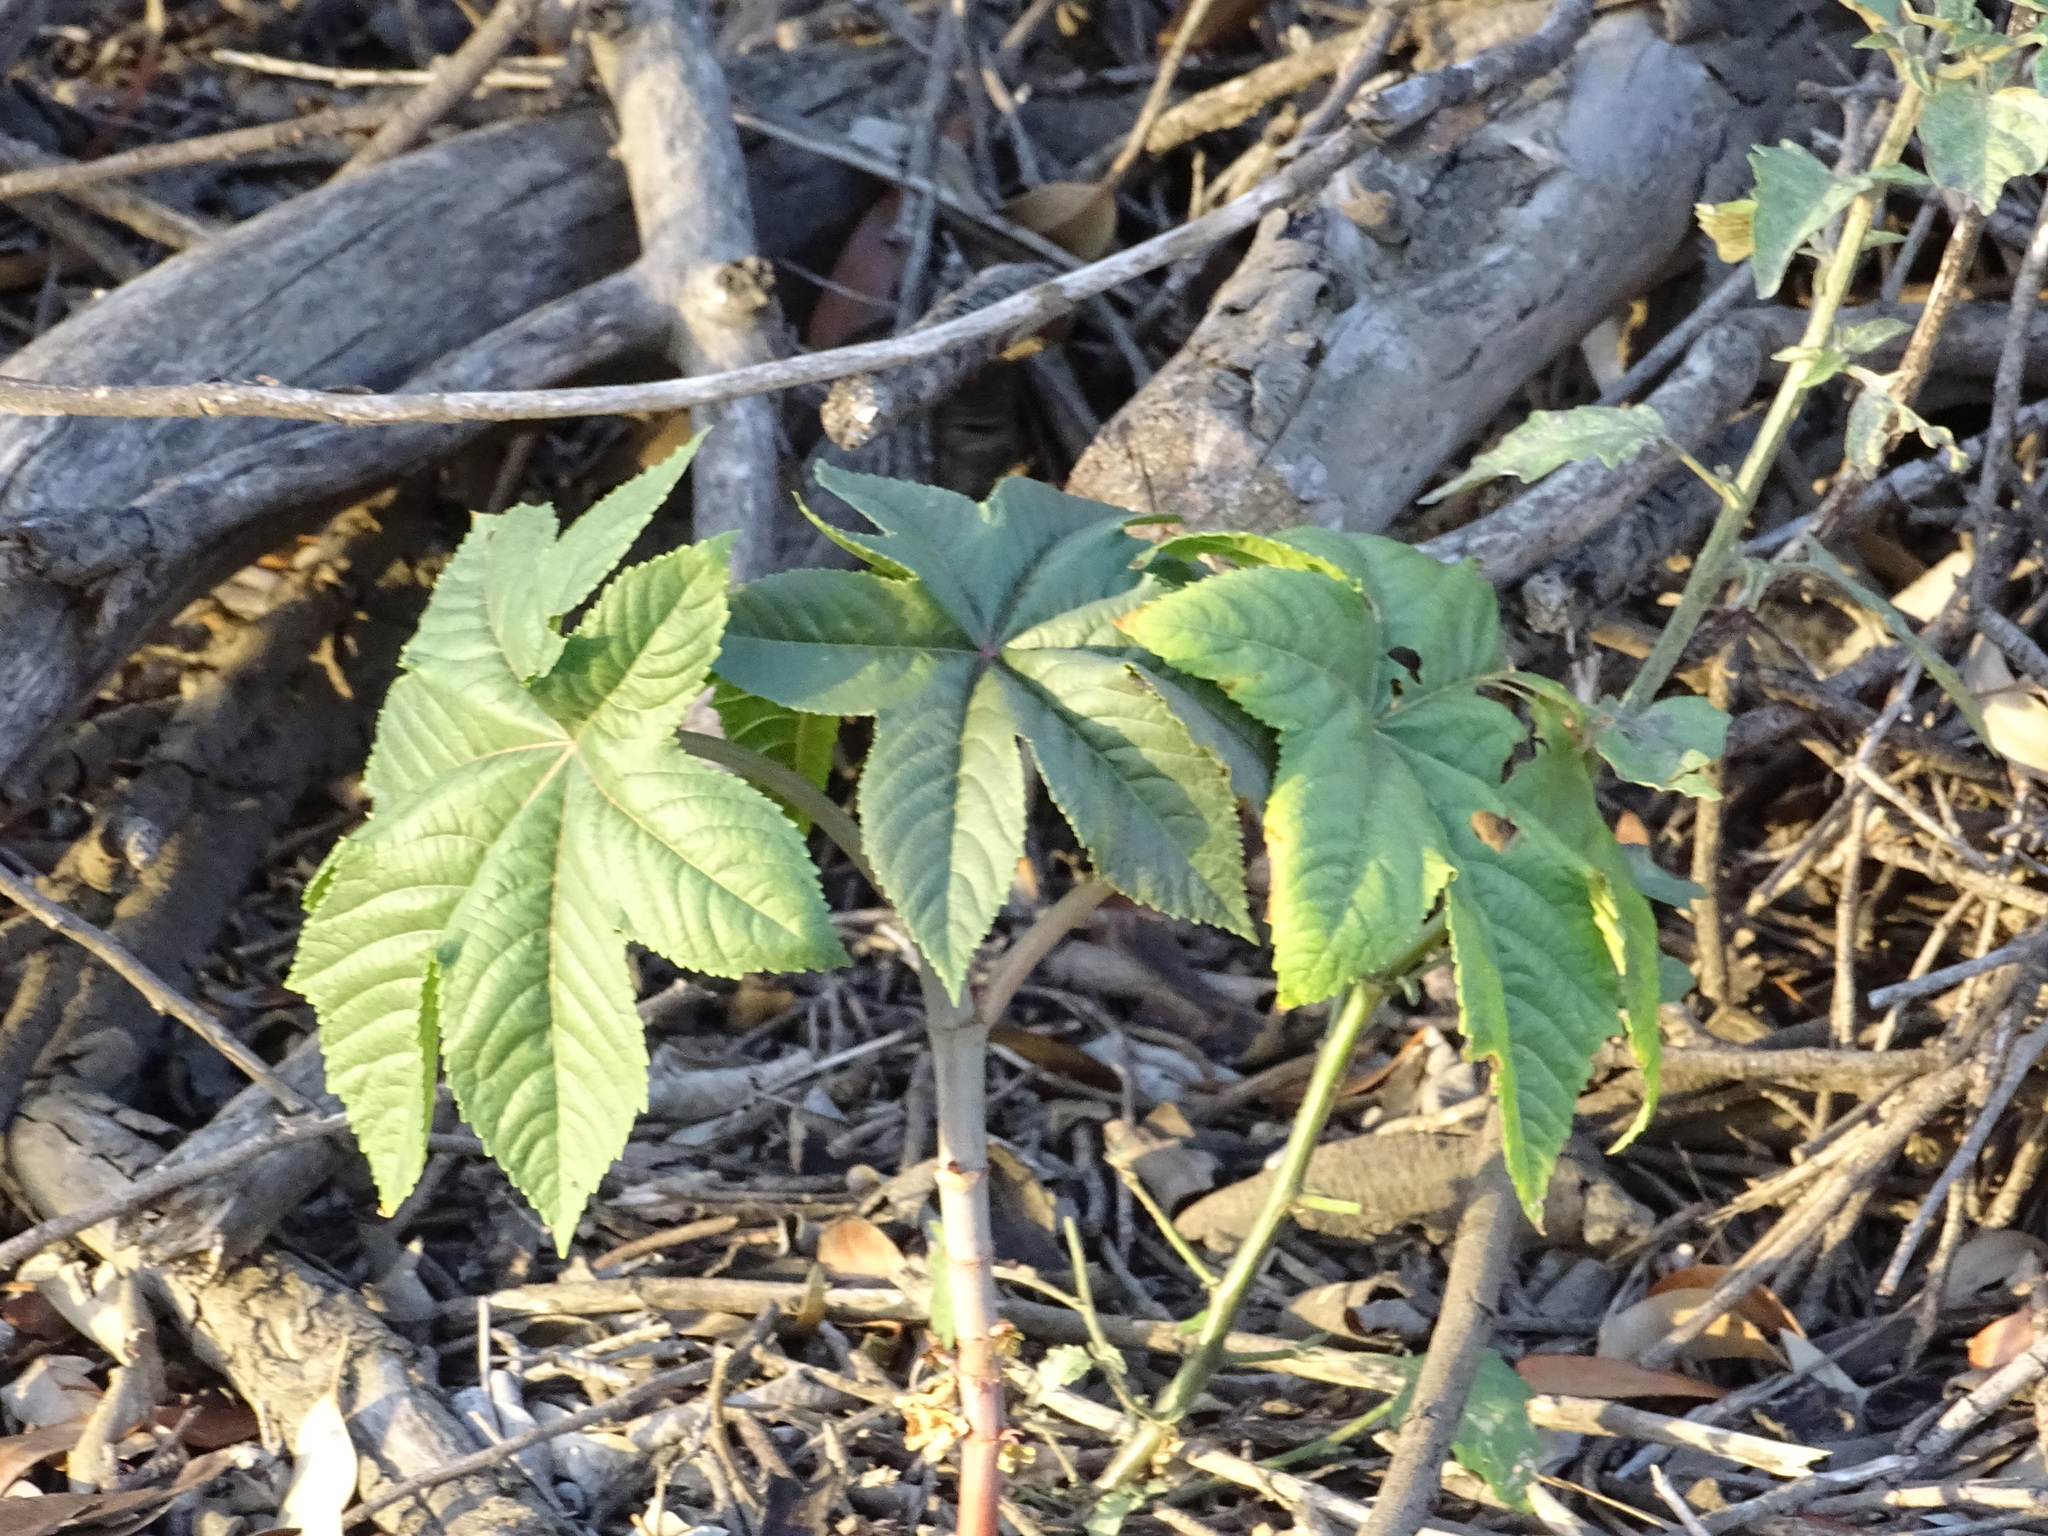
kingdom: Plantae
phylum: Tracheophyta
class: Magnoliopsida
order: Malpighiales
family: Euphorbiaceae
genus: Ricinus
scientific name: Ricinus communis
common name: Castor-oil-plant
